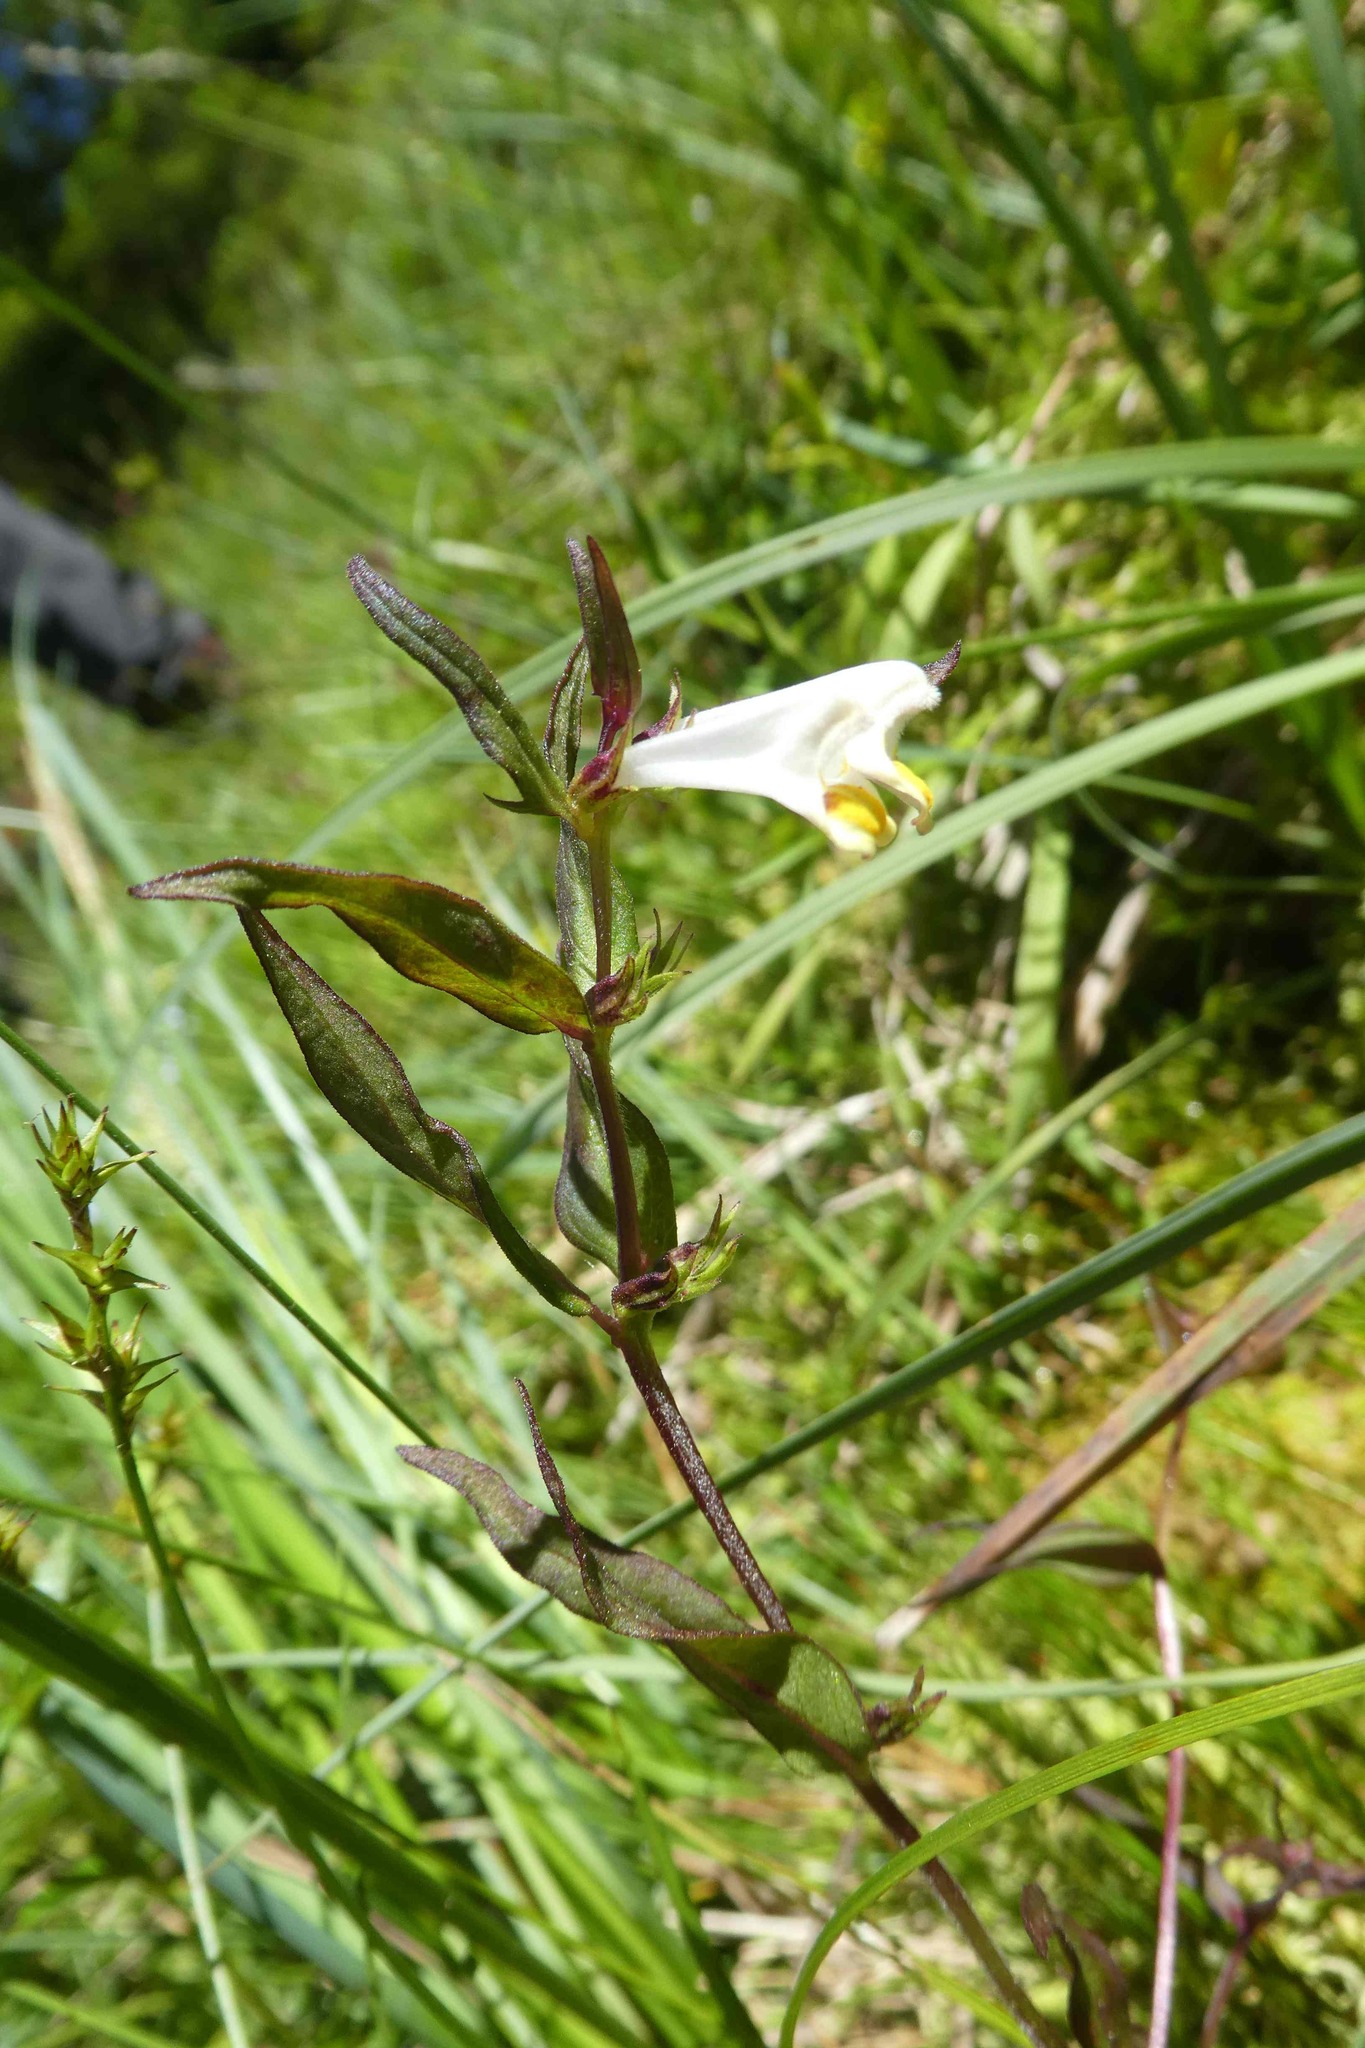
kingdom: Plantae
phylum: Tracheophyta
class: Magnoliopsida
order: Lamiales
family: Orobanchaceae
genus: Melampyrum
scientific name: Melampyrum pratense
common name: Common cow-wheat
